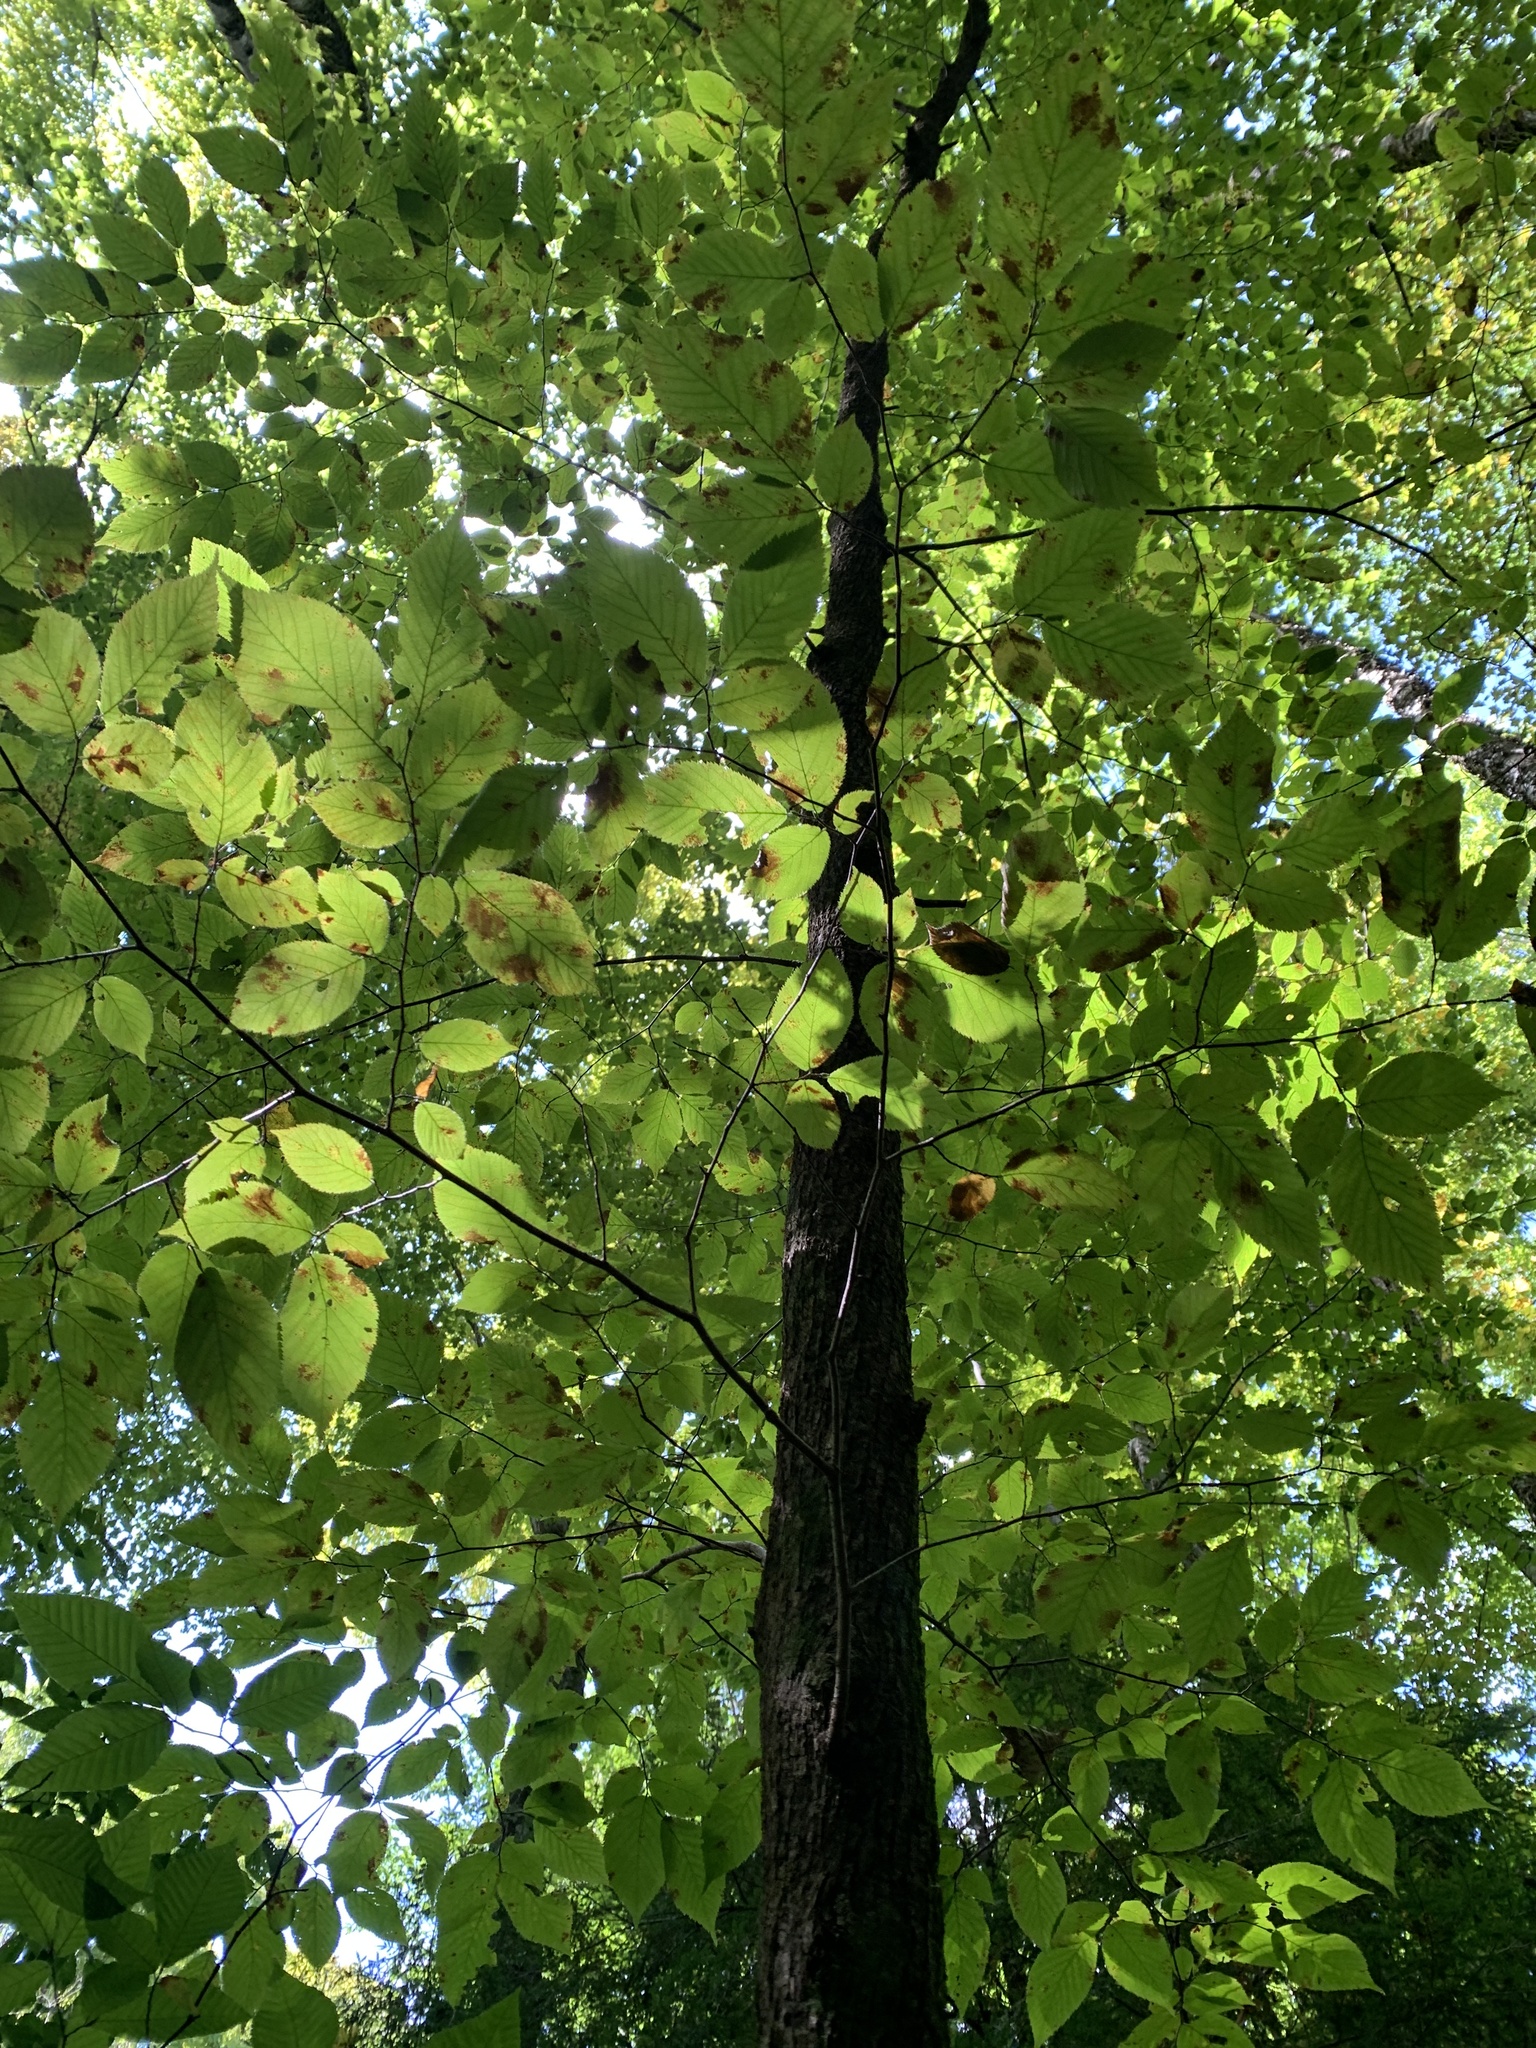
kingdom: Plantae
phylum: Tracheophyta
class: Magnoliopsida
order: Fagales
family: Betulaceae
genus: Ostrya
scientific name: Ostrya virginiana
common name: Ironwood
